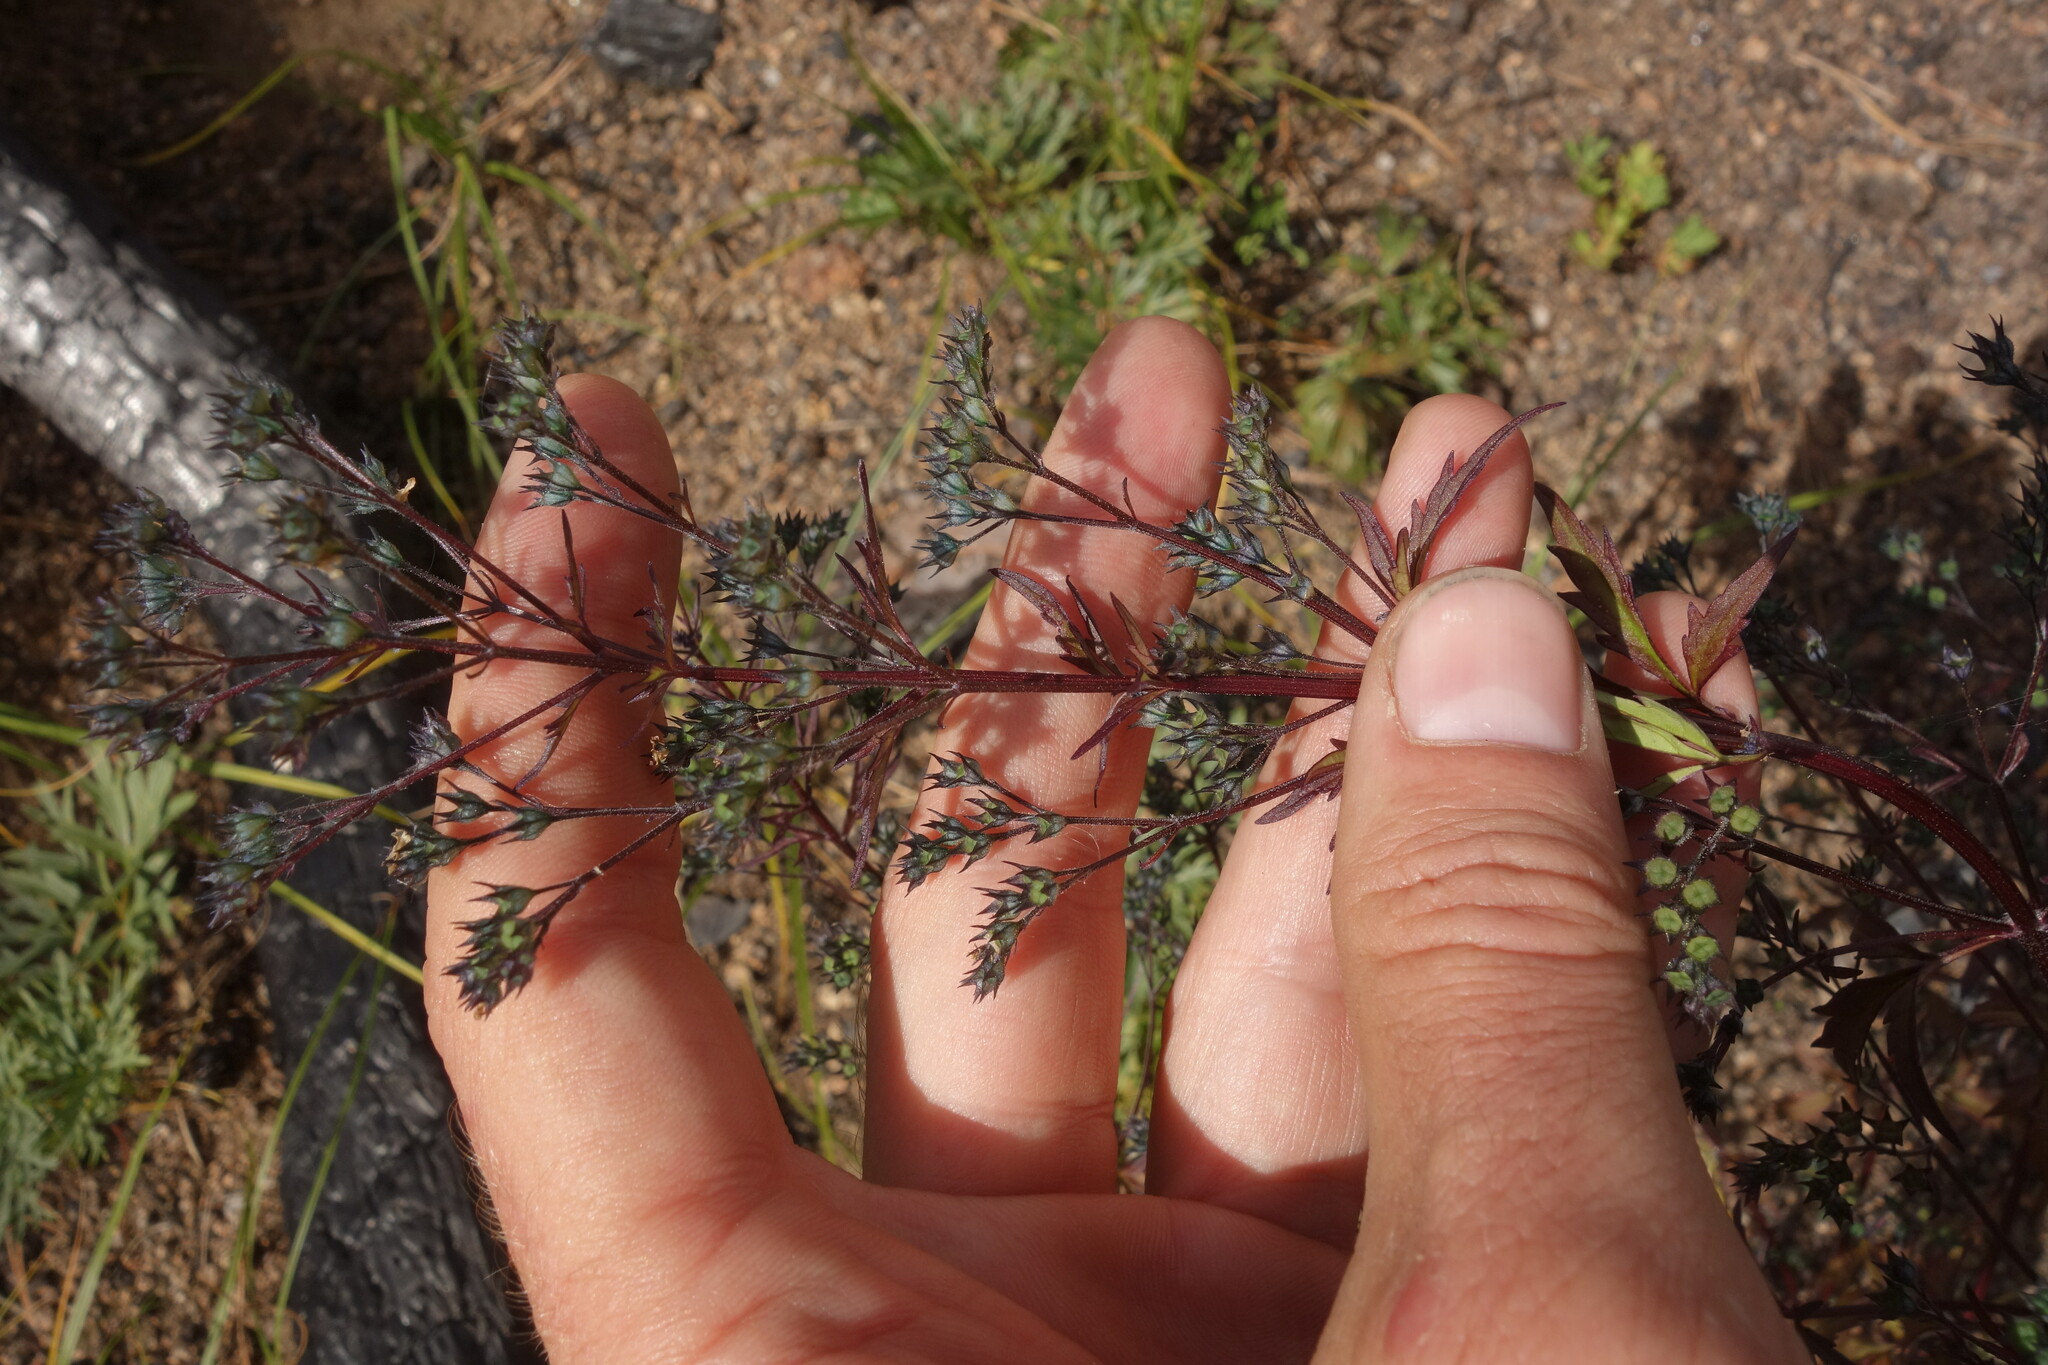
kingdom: Plantae
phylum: Tracheophyta
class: Magnoliopsida
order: Lamiales
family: Lamiaceae
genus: Amethystea
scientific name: Amethystea caerulea
